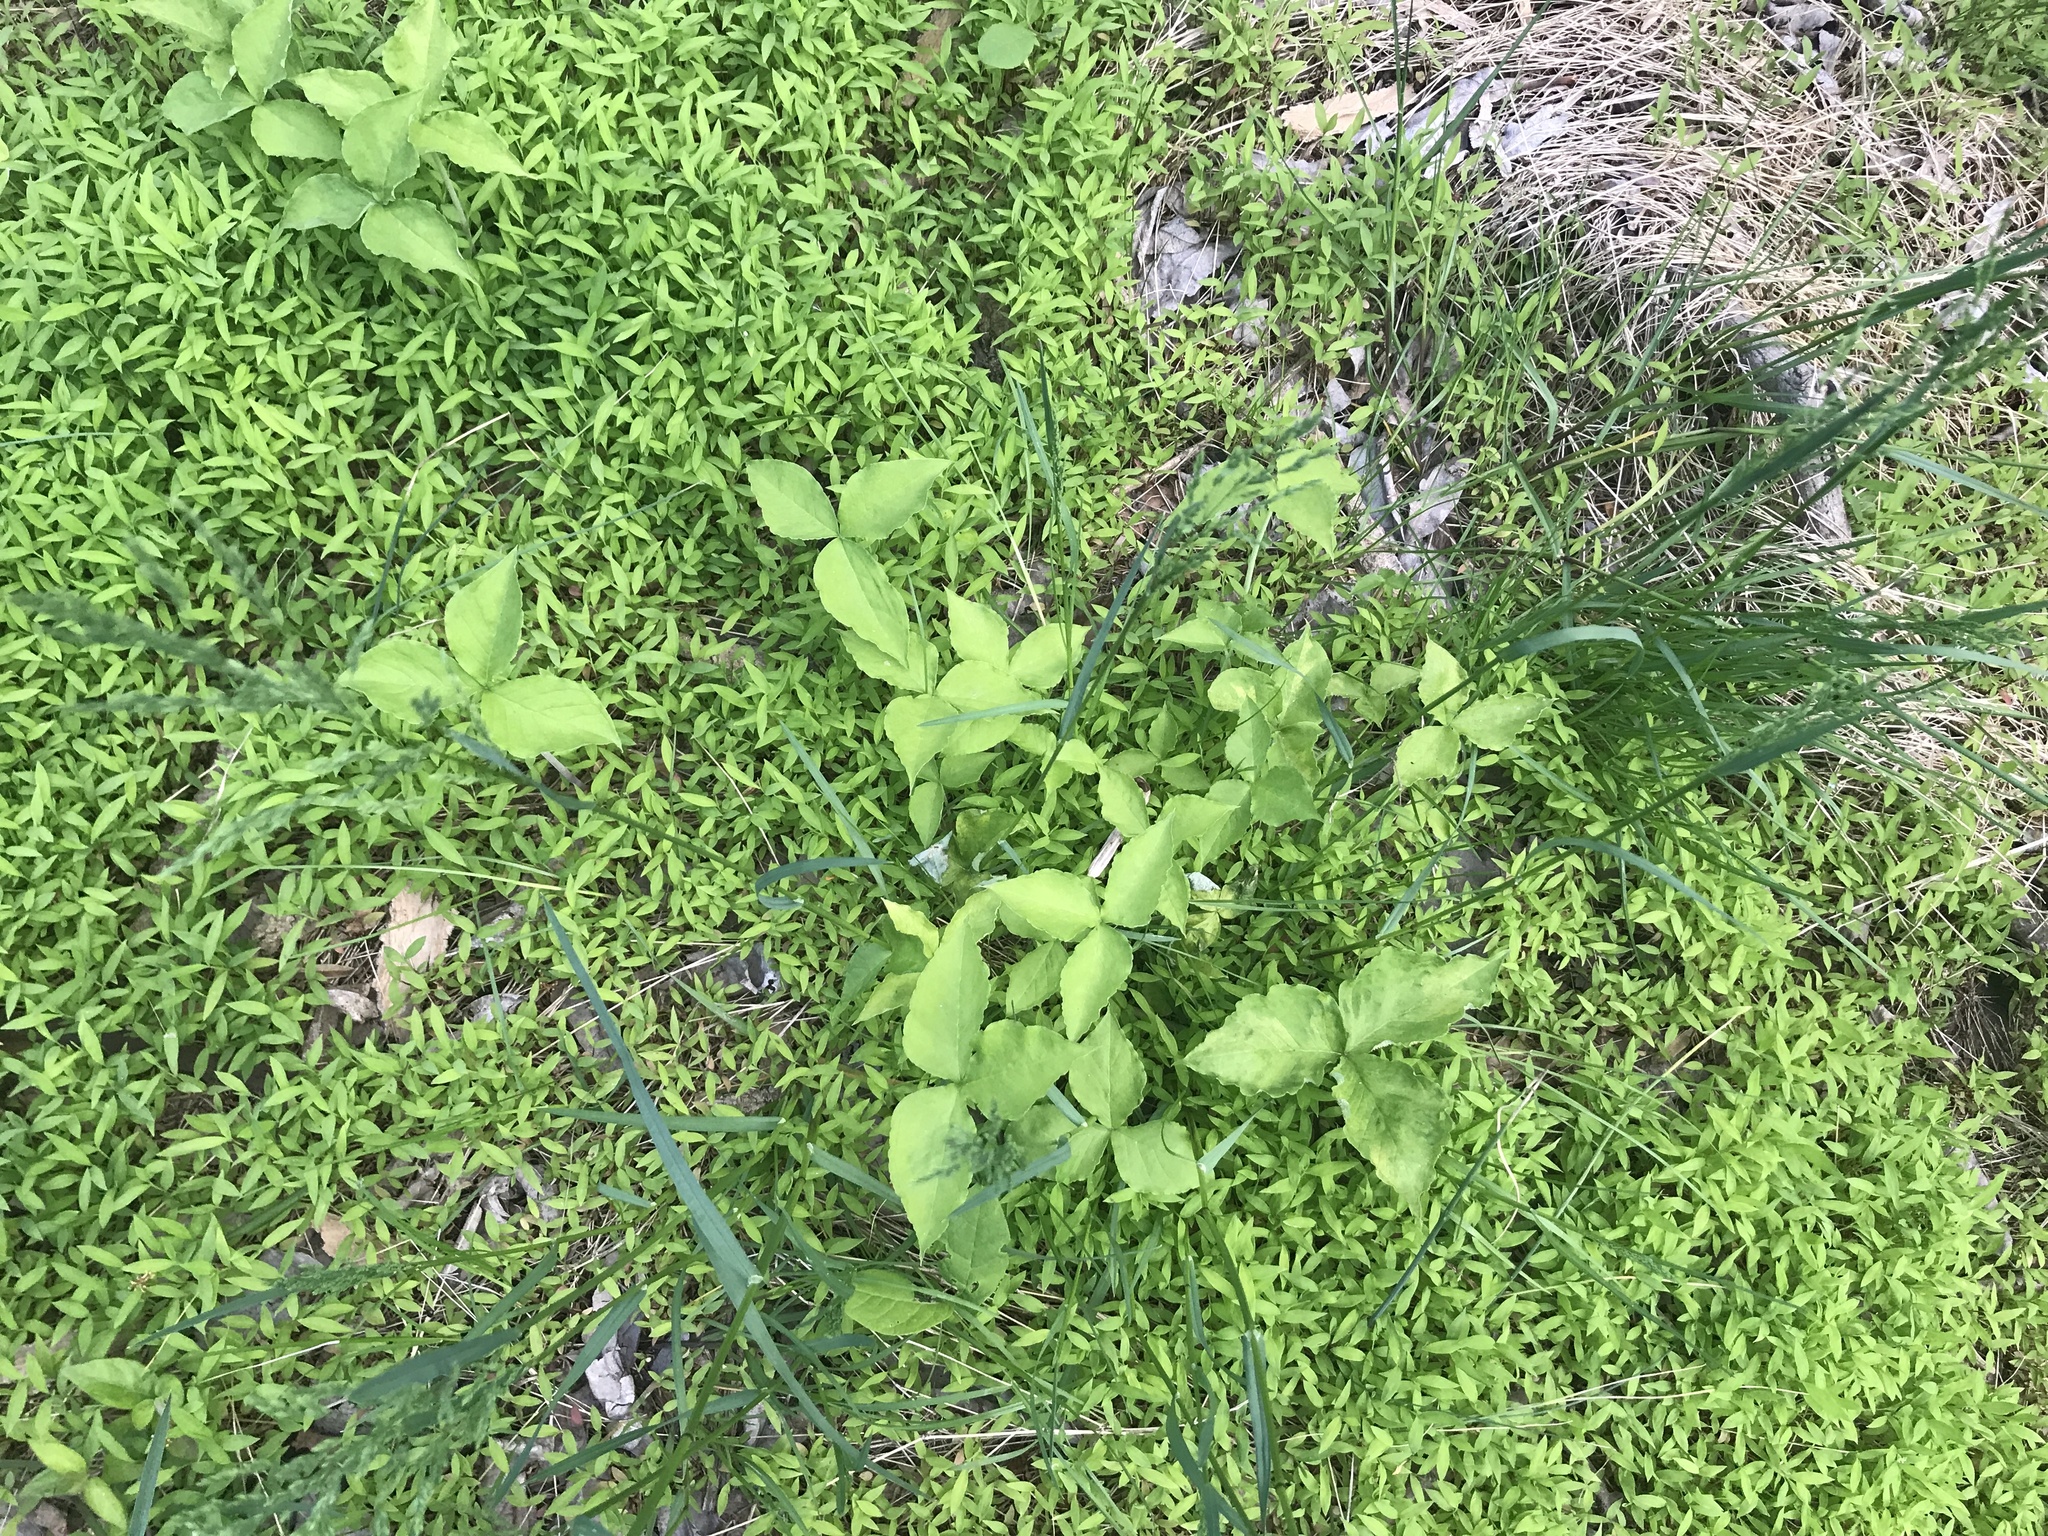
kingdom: Plantae
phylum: Tracheophyta
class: Liliopsida
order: Alismatales
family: Araceae
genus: Arisaema
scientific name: Arisaema triphyllum
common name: Jack-in-the-pulpit
